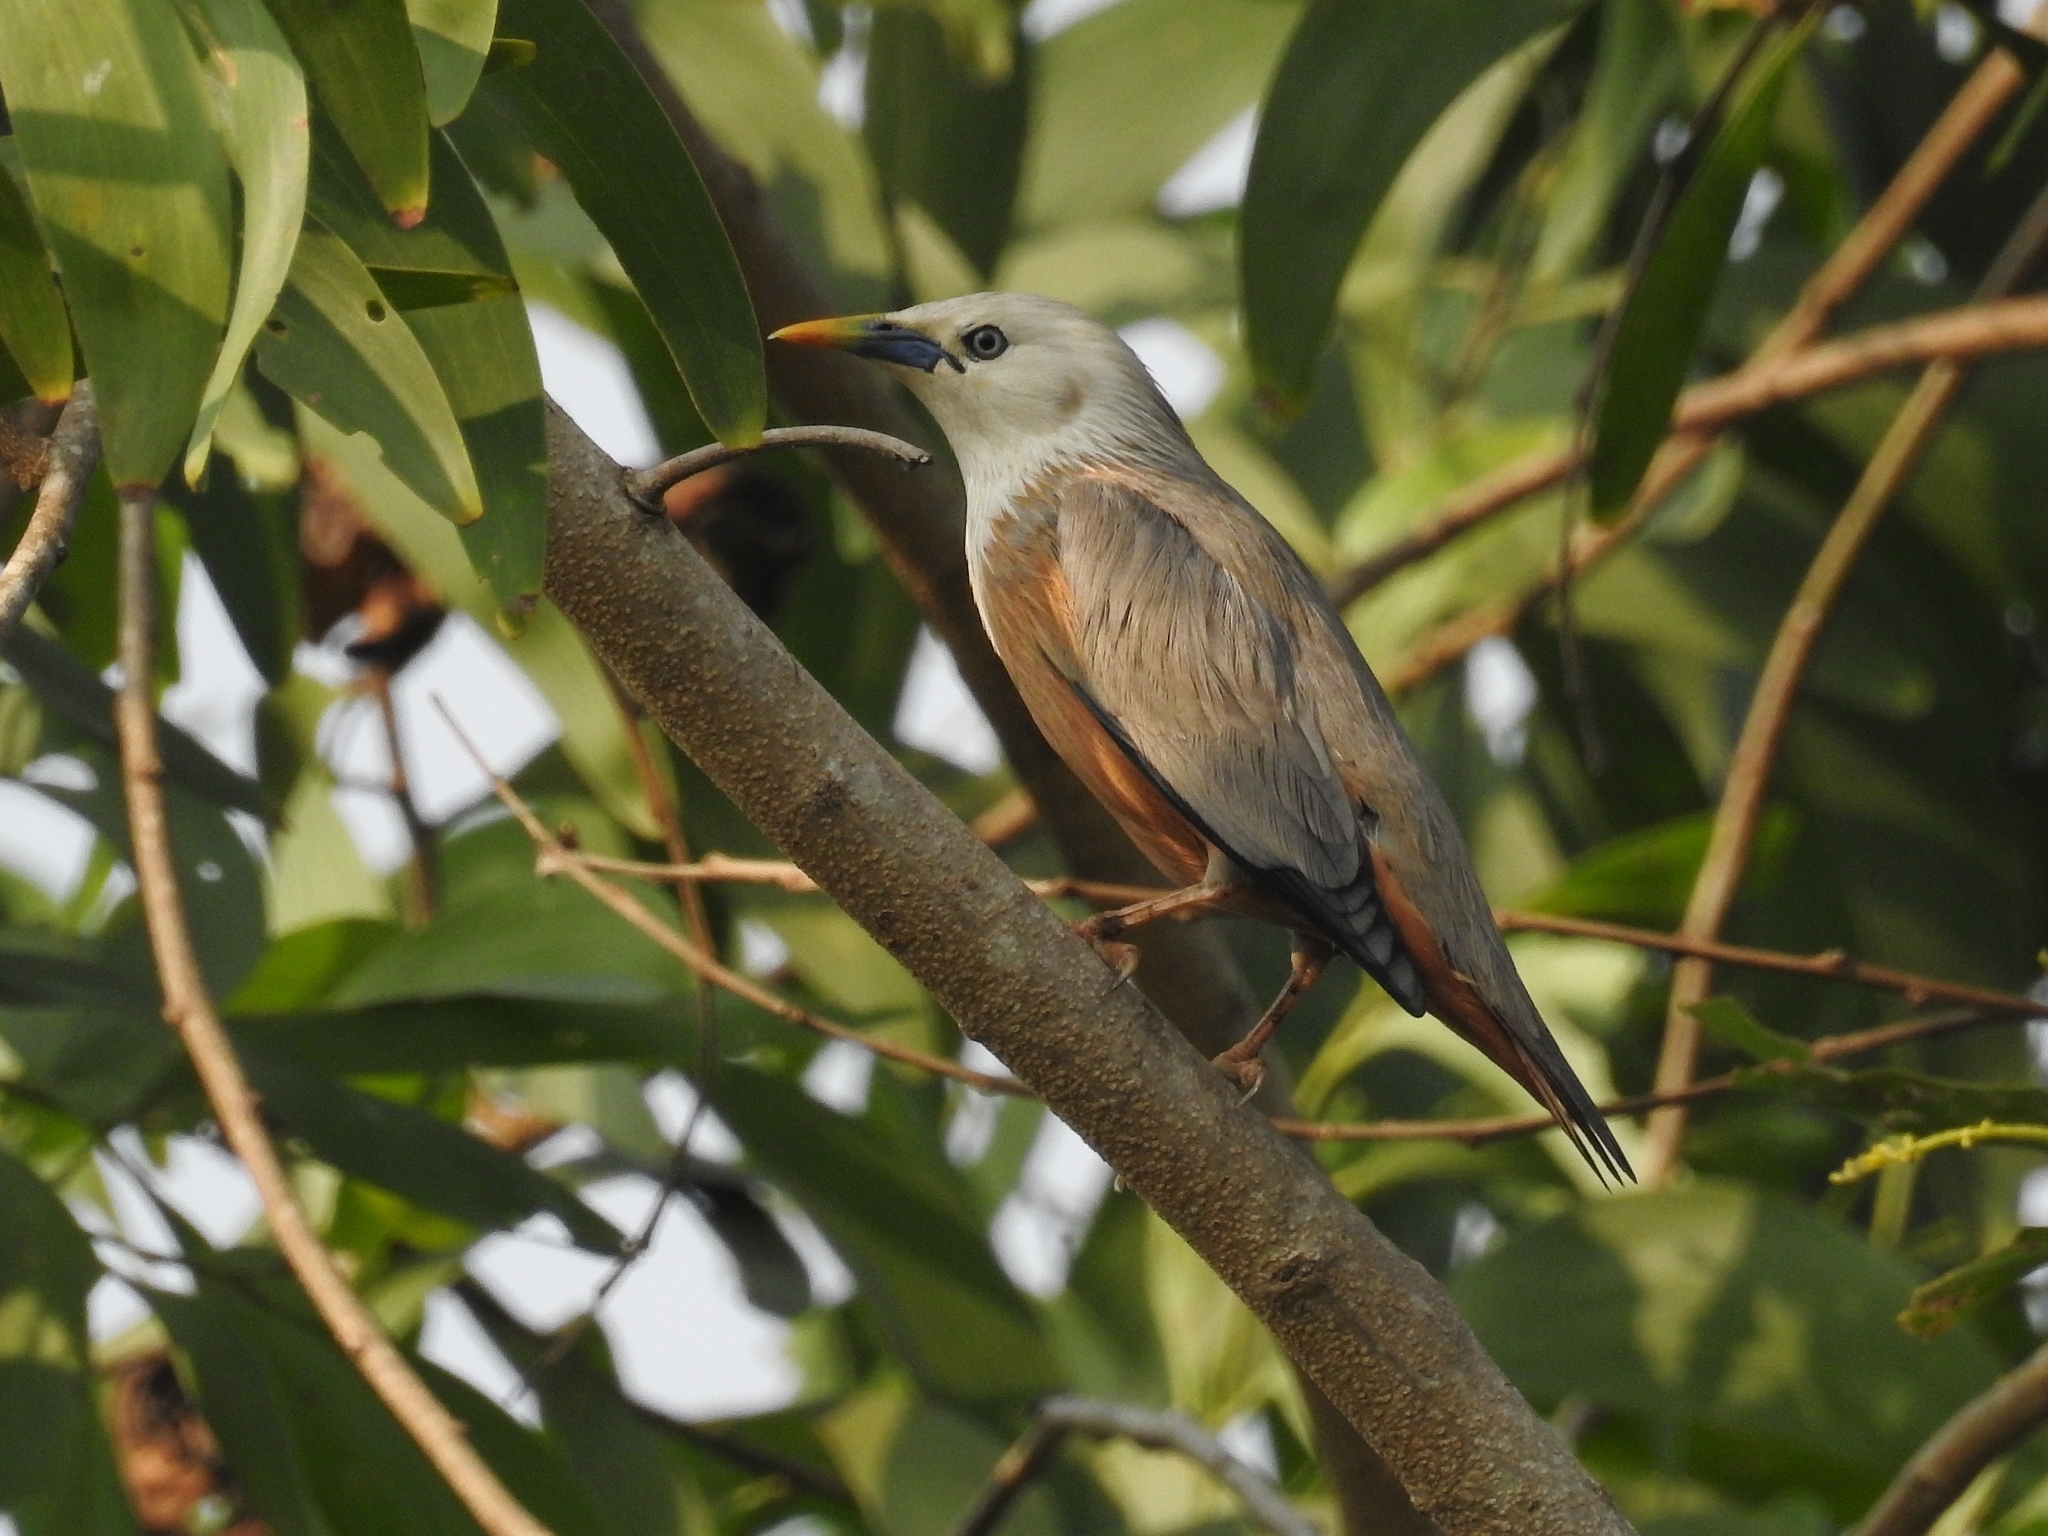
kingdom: Animalia
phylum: Chordata
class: Aves
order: Passeriformes
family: Sturnidae
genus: Sturnia
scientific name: Sturnia blythii
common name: Malabar starling
